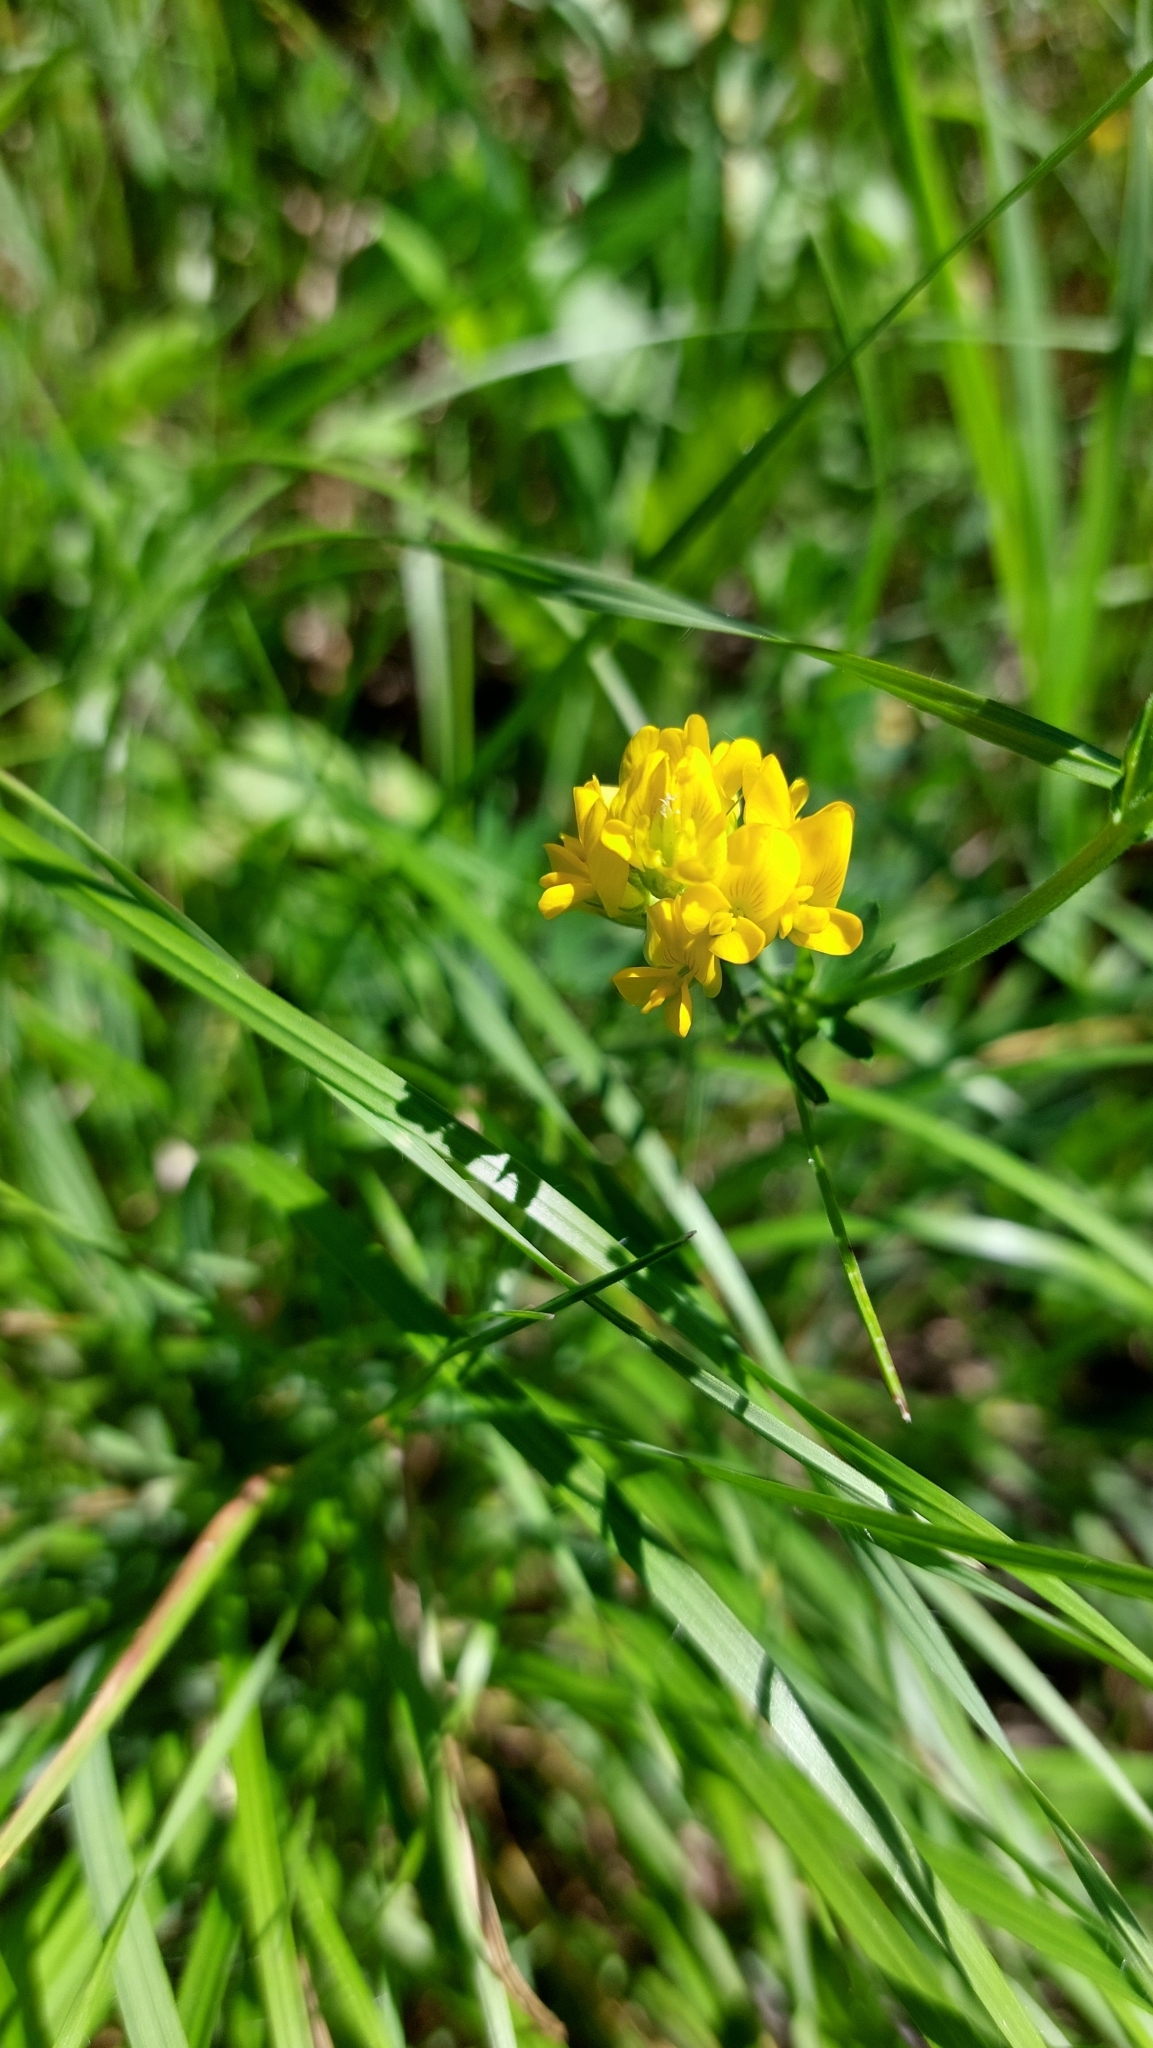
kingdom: Plantae
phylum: Tracheophyta
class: Magnoliopsida
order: Fabales
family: Fabaceae
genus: Medicago
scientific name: Medicago falcata
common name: Sickle medick
